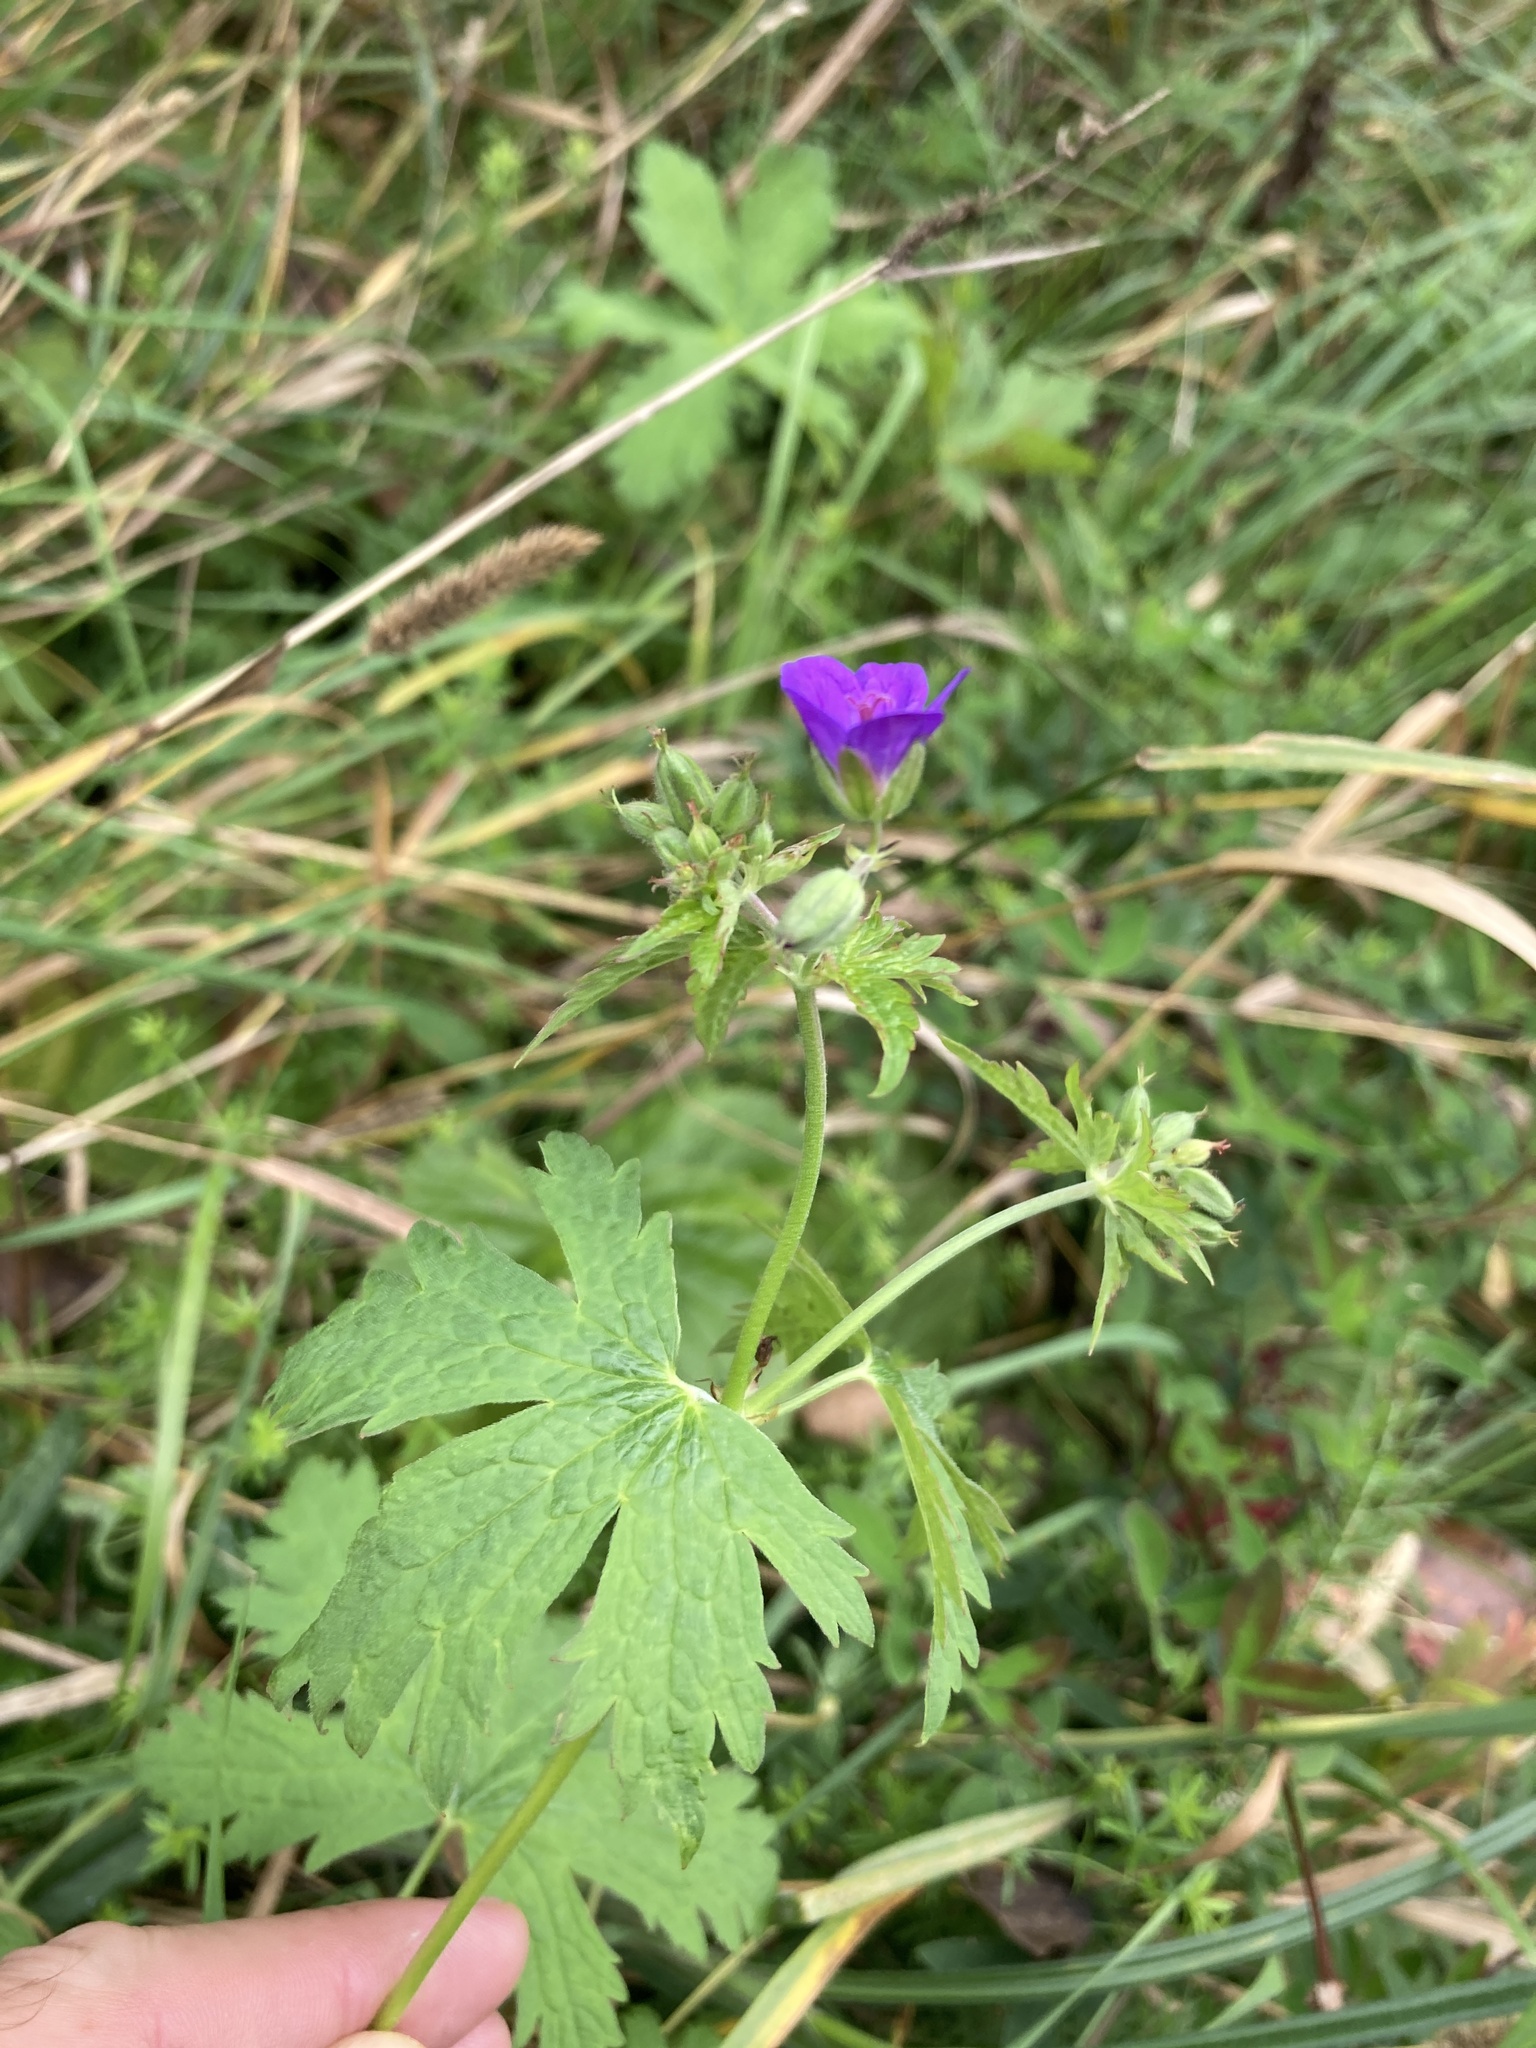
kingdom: Plantae
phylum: Tracheophyta
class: Magnoliopsida
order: Geraniales
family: Geraniaceae
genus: Geranium
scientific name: Geranium sylvaticum
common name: Wood crane's-bill
